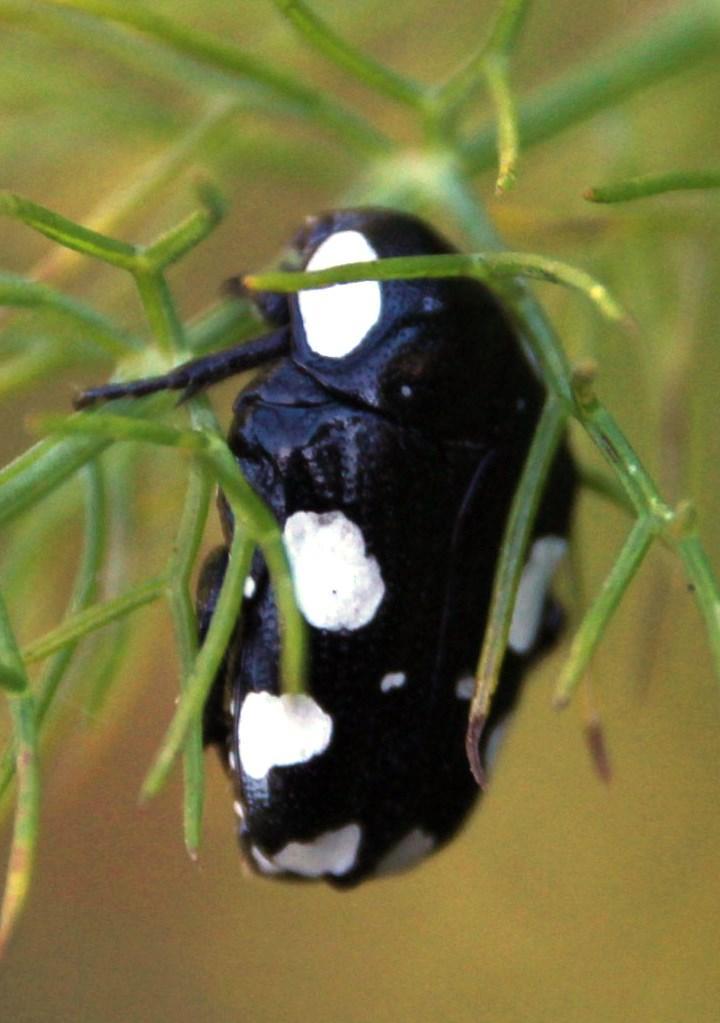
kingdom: Animalia
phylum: Arthropoda
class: Insecta
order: Coleoptera
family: Scarabaeidae
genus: Mausoleopsis
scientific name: Mausoleopsis amabilis
